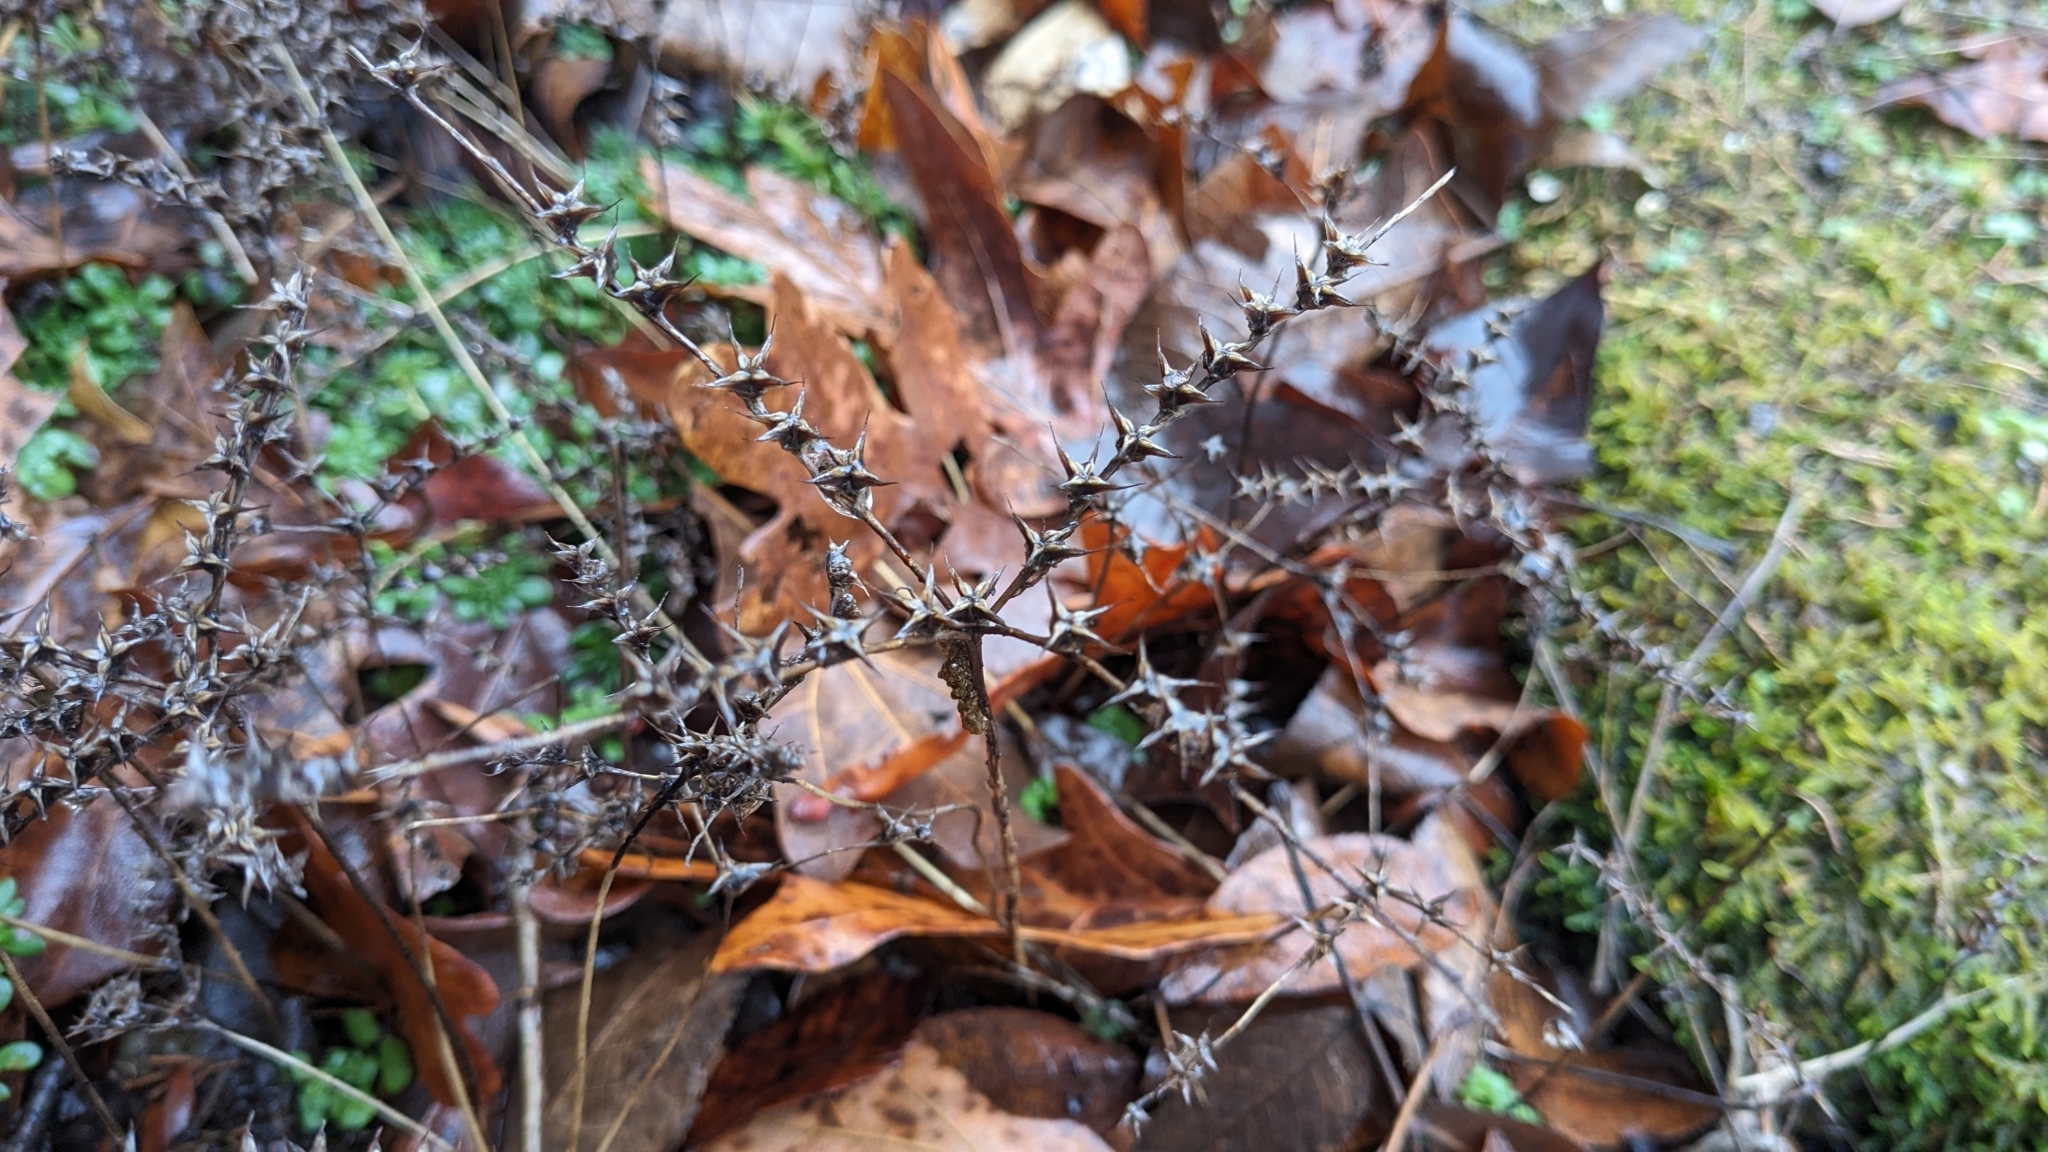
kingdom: Plantae
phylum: Tracheophyta
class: Magnoliopsida
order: Saxifragales
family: Crassulaceae
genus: Sedum
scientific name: Sedum pulchellum
